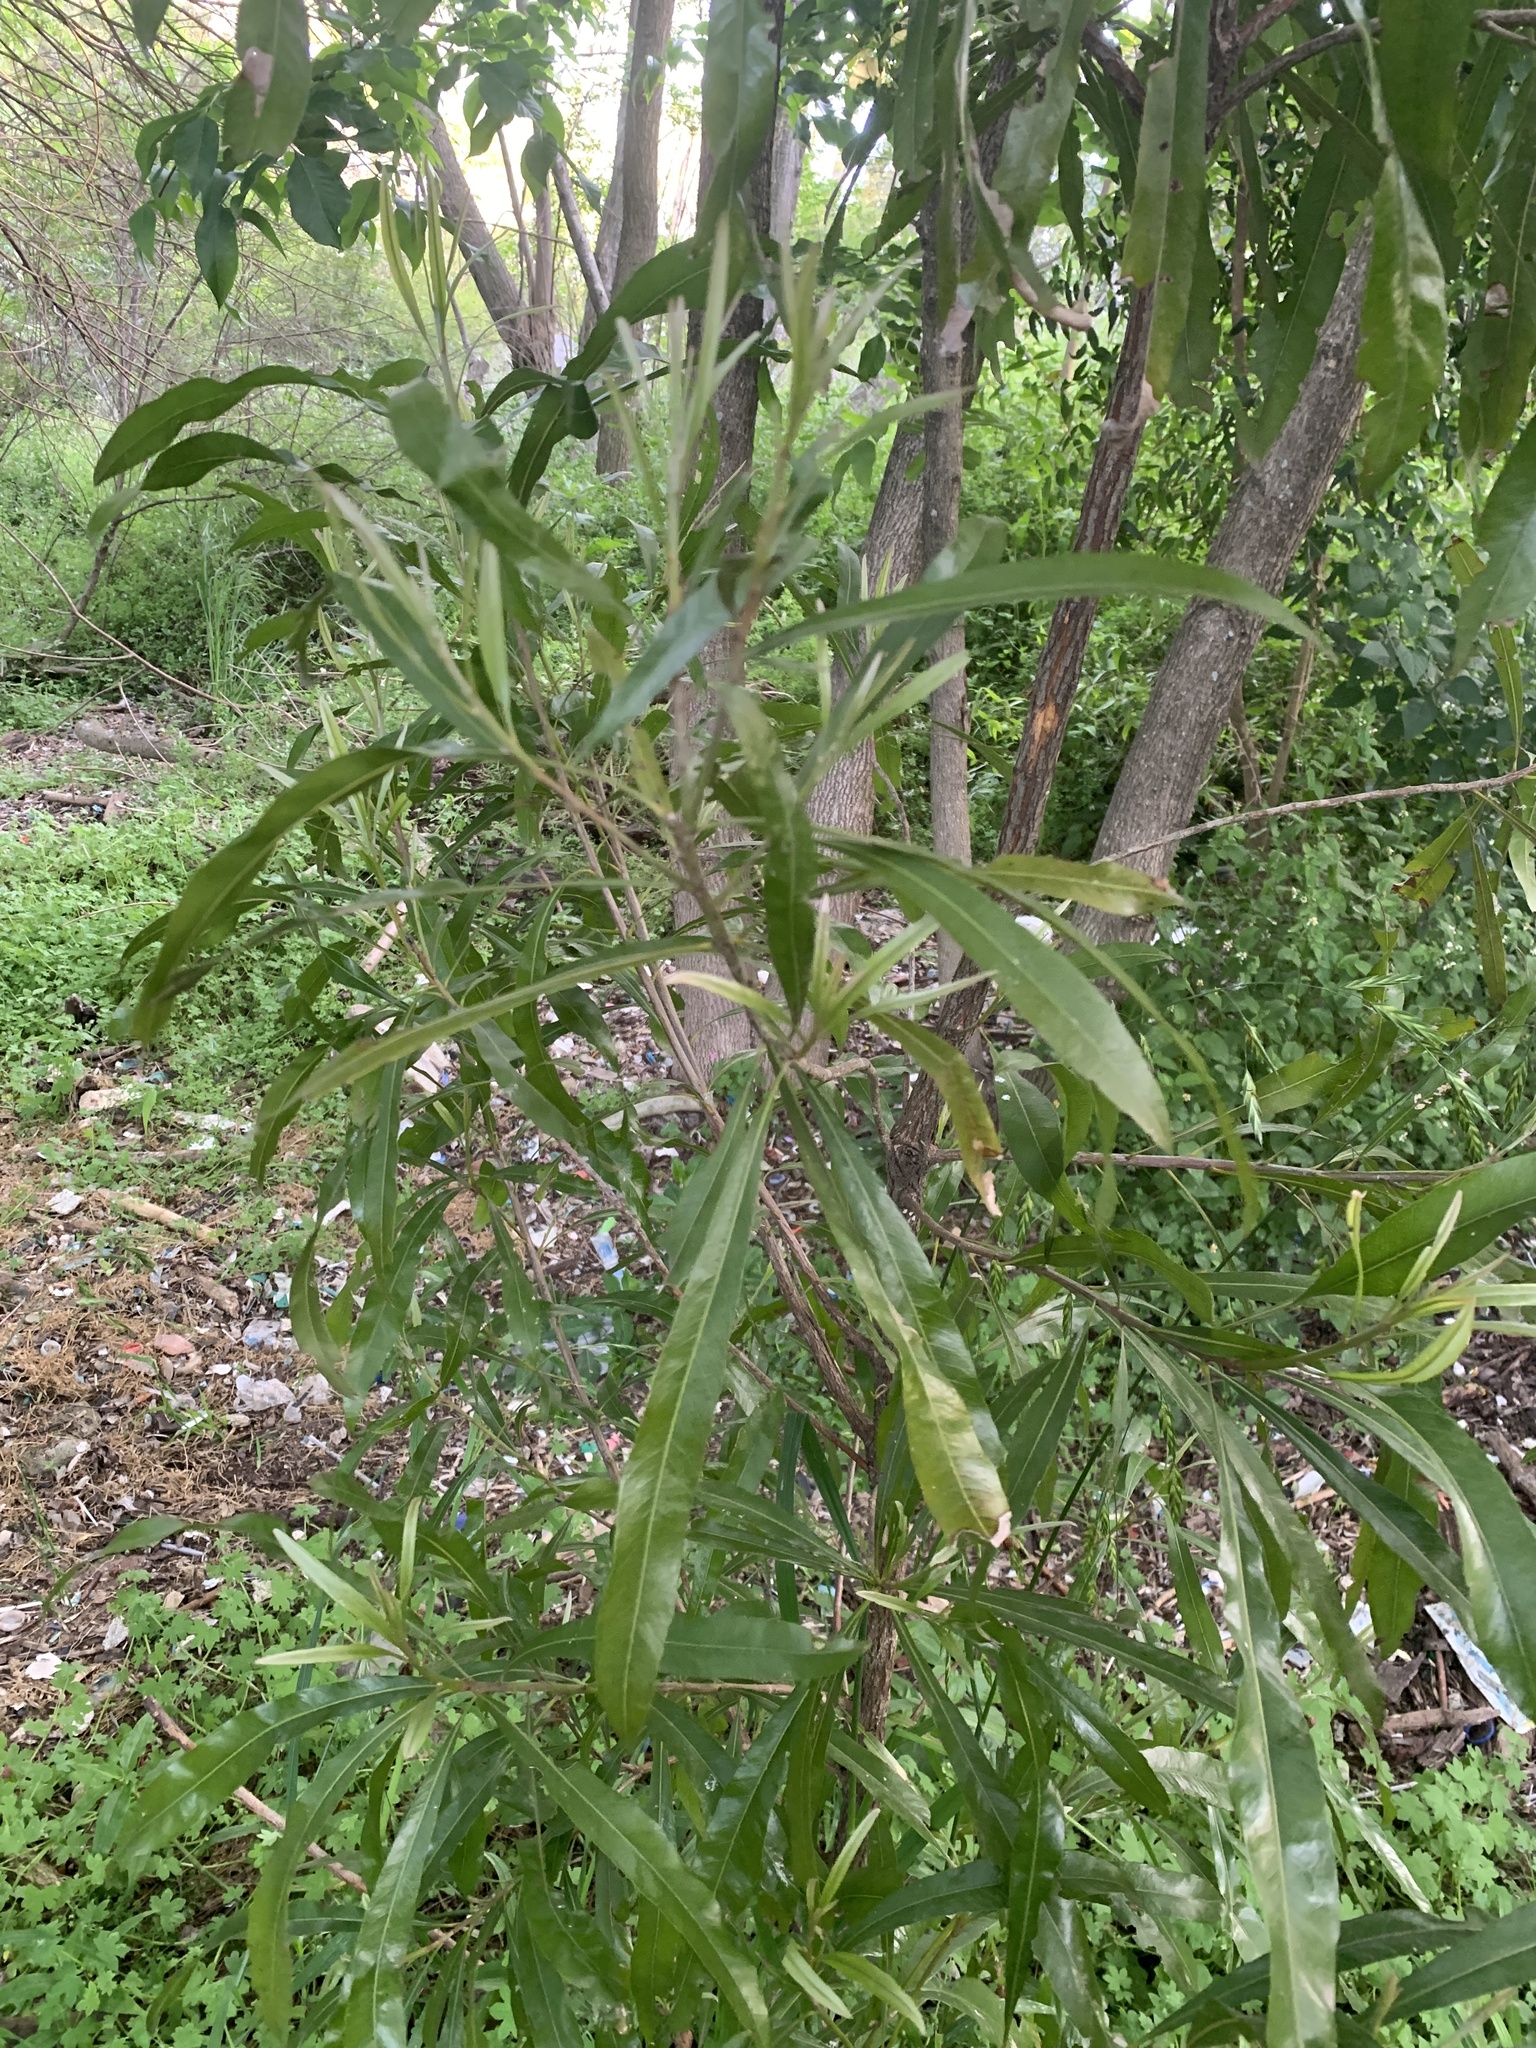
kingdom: Plantae
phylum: Tracheophyta
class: Magnoliopsida
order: Ericales
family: Sapotaceae
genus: Labatia
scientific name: Labatia salicifolia
